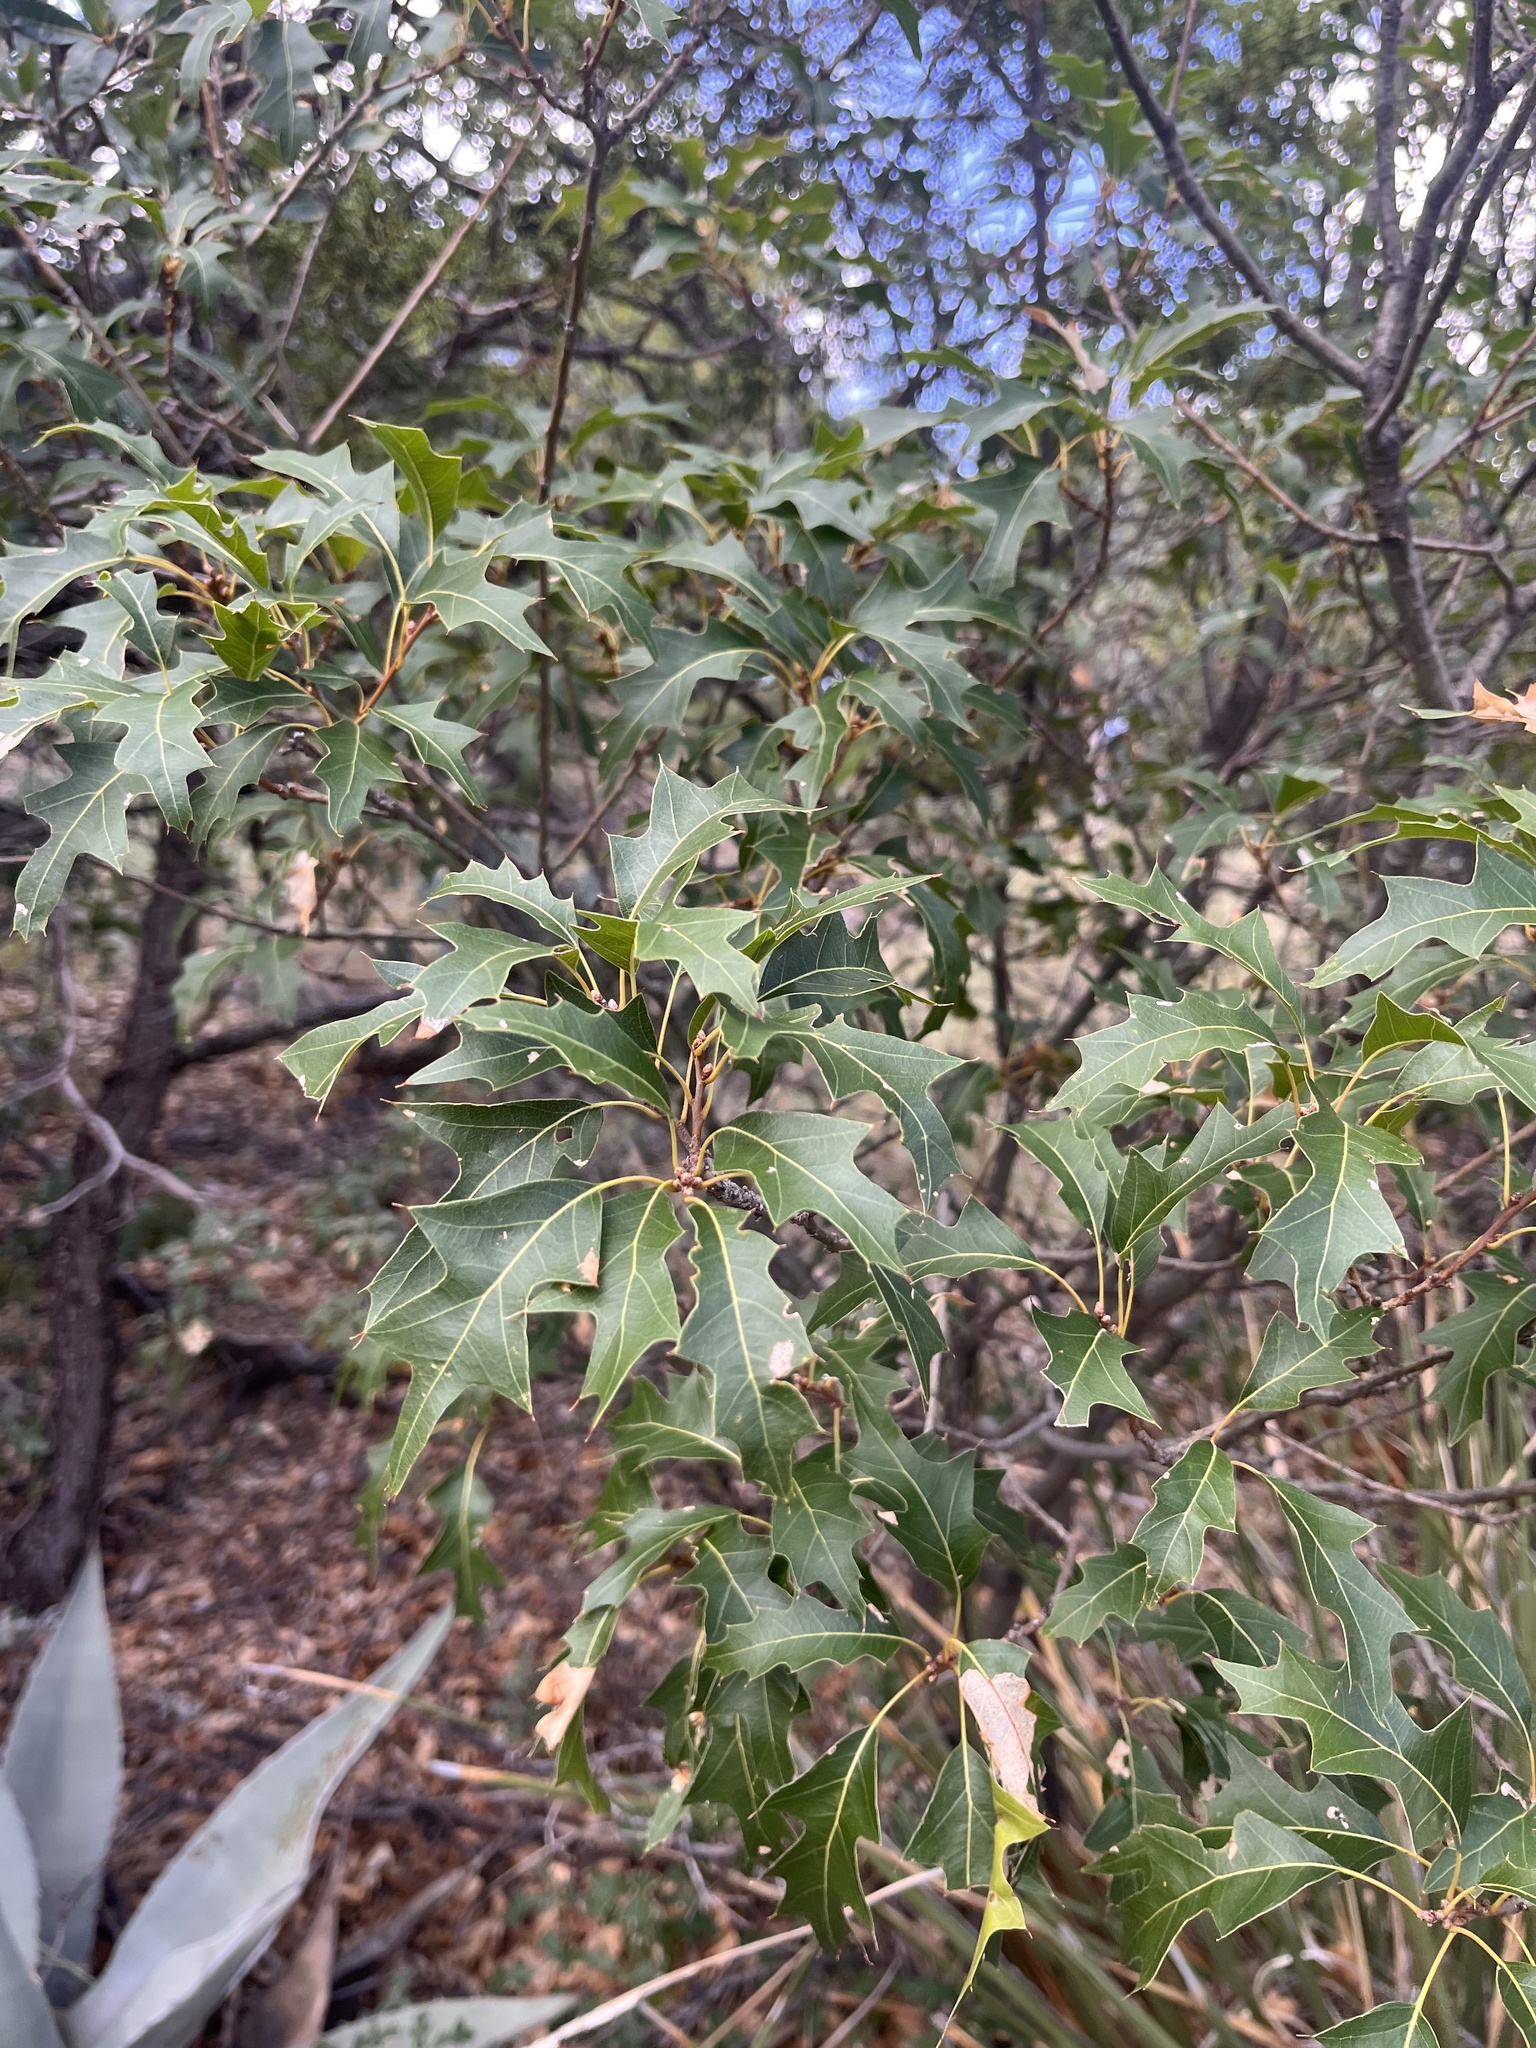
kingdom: Plantae
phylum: Tracheophyta
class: Magnoliopsida
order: Fagales
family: Fagaceae
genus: Quercus
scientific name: Quercus gravesii
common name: Chisos red oak
